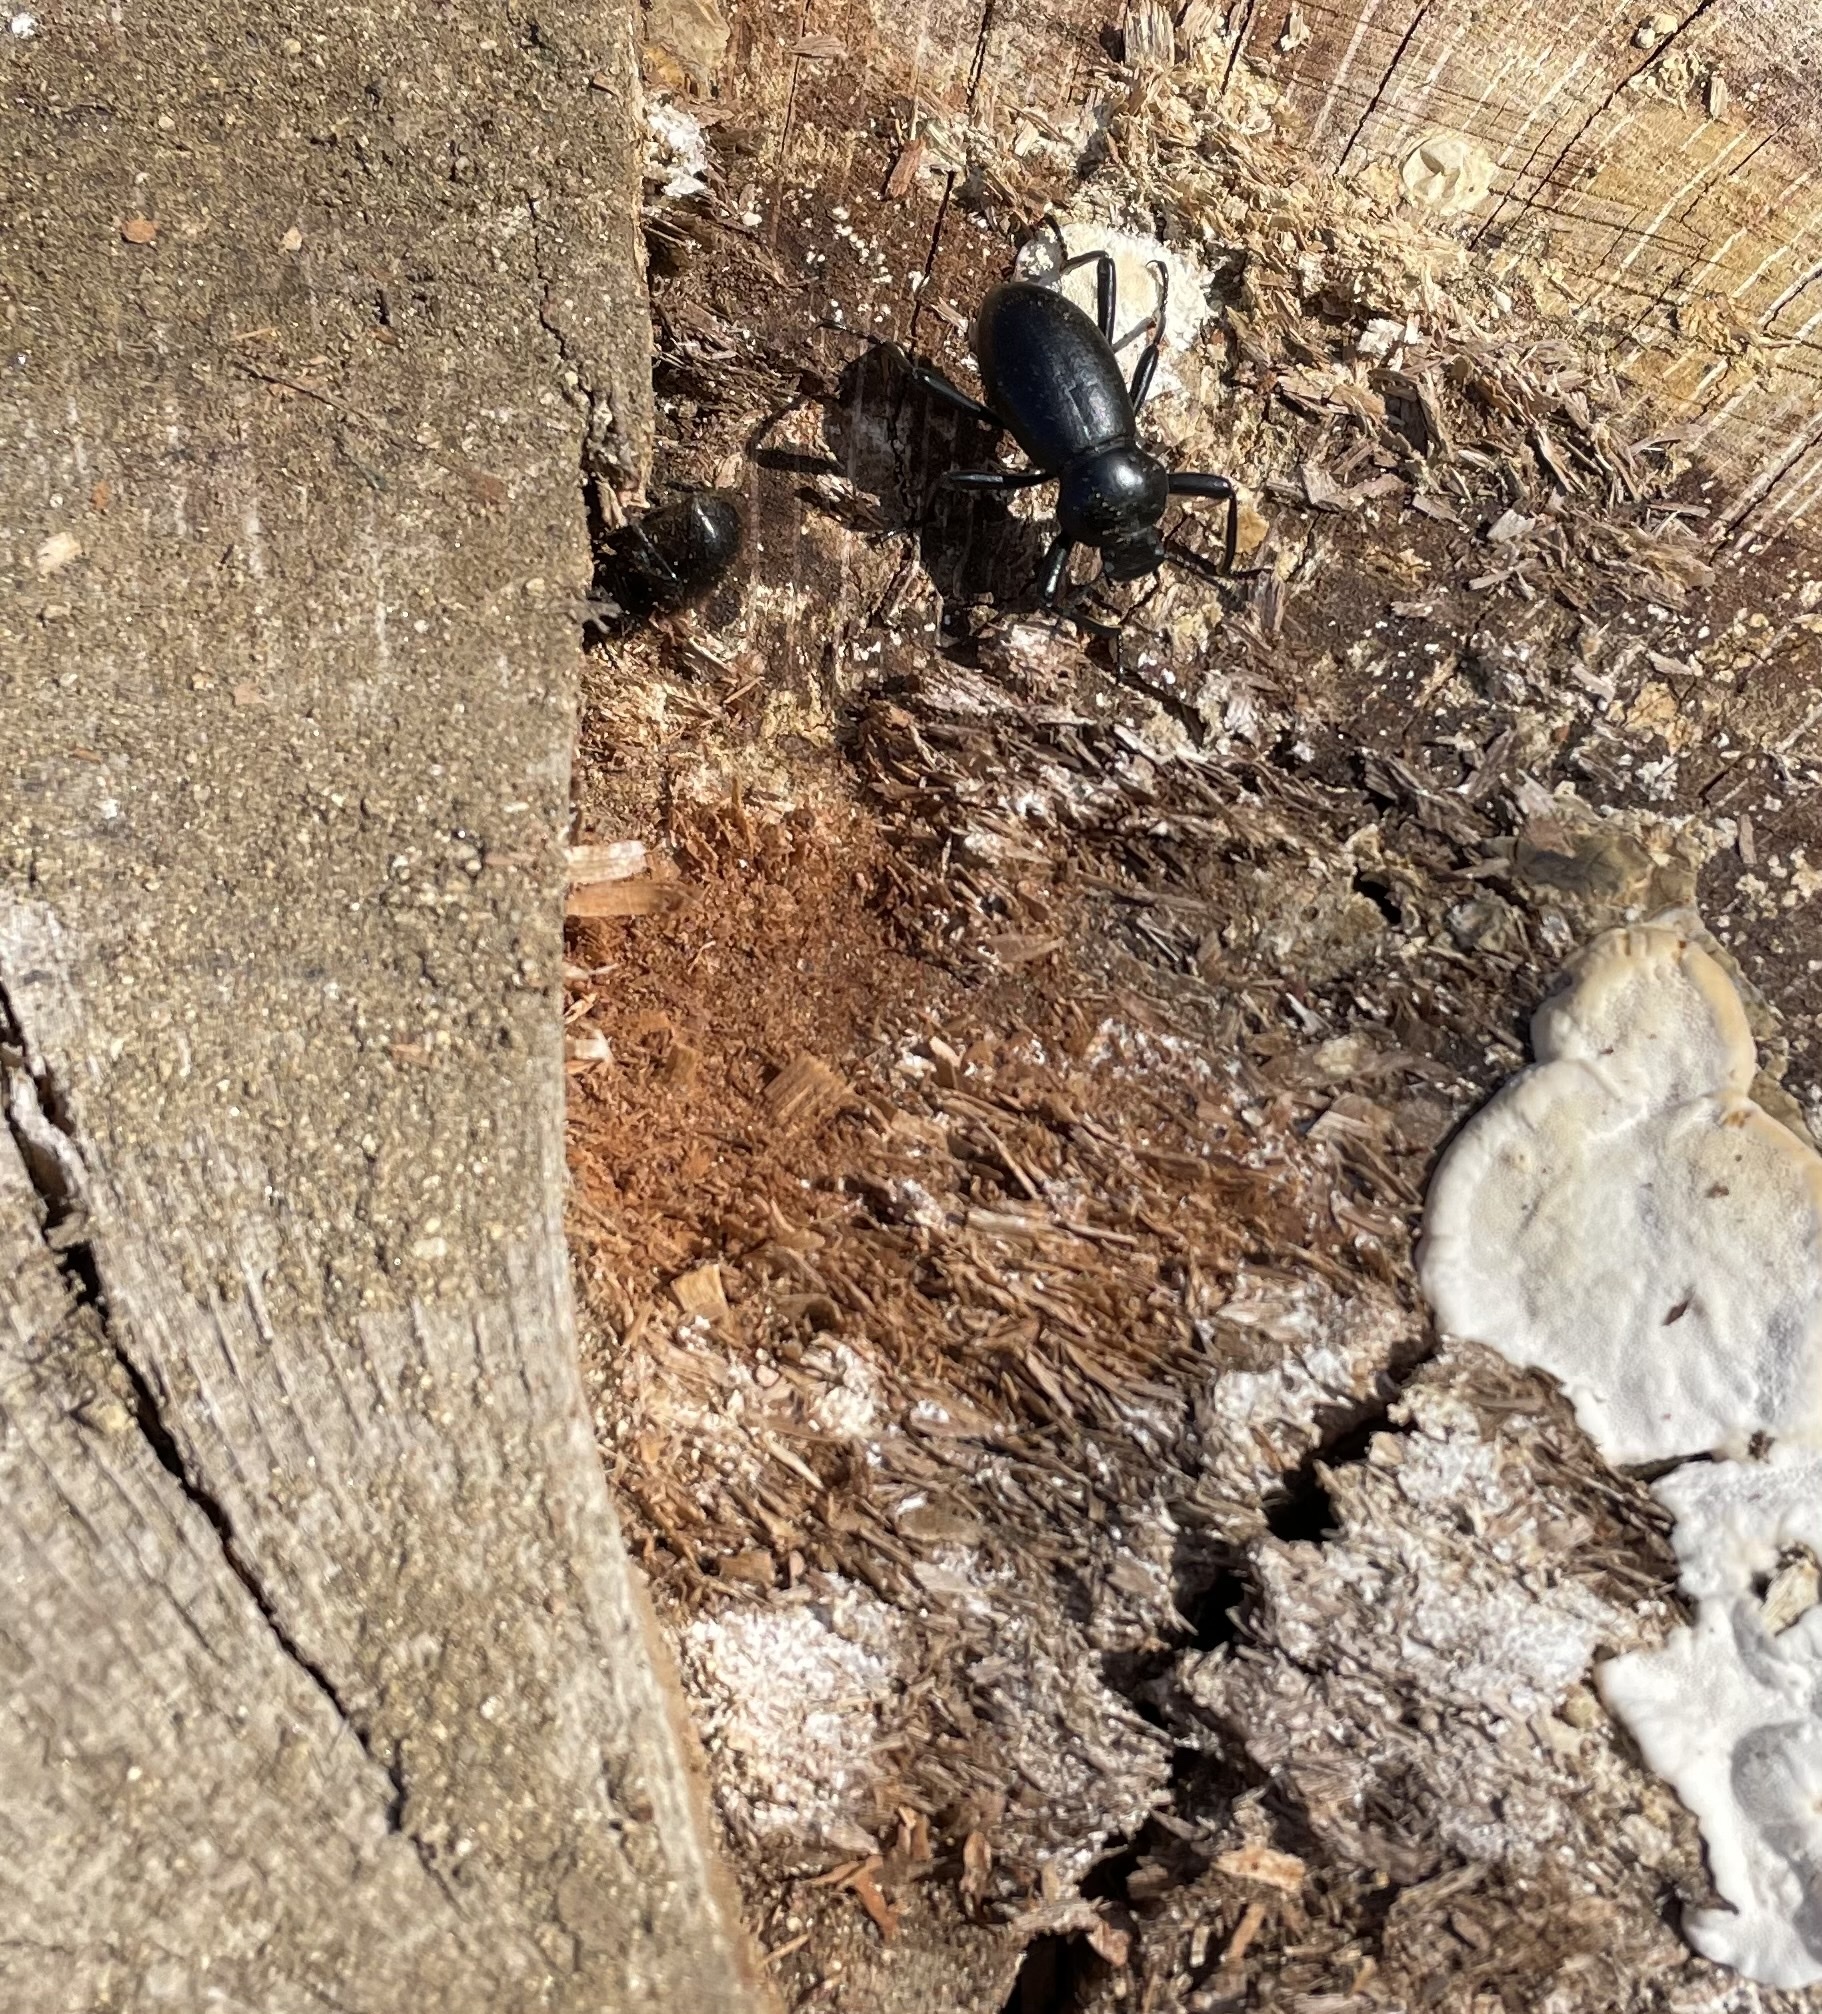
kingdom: Animalia
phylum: Arthropoda
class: Insecta
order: Coleoptera
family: Tenebrionidae
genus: Eleodes
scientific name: Eleodes osculans
